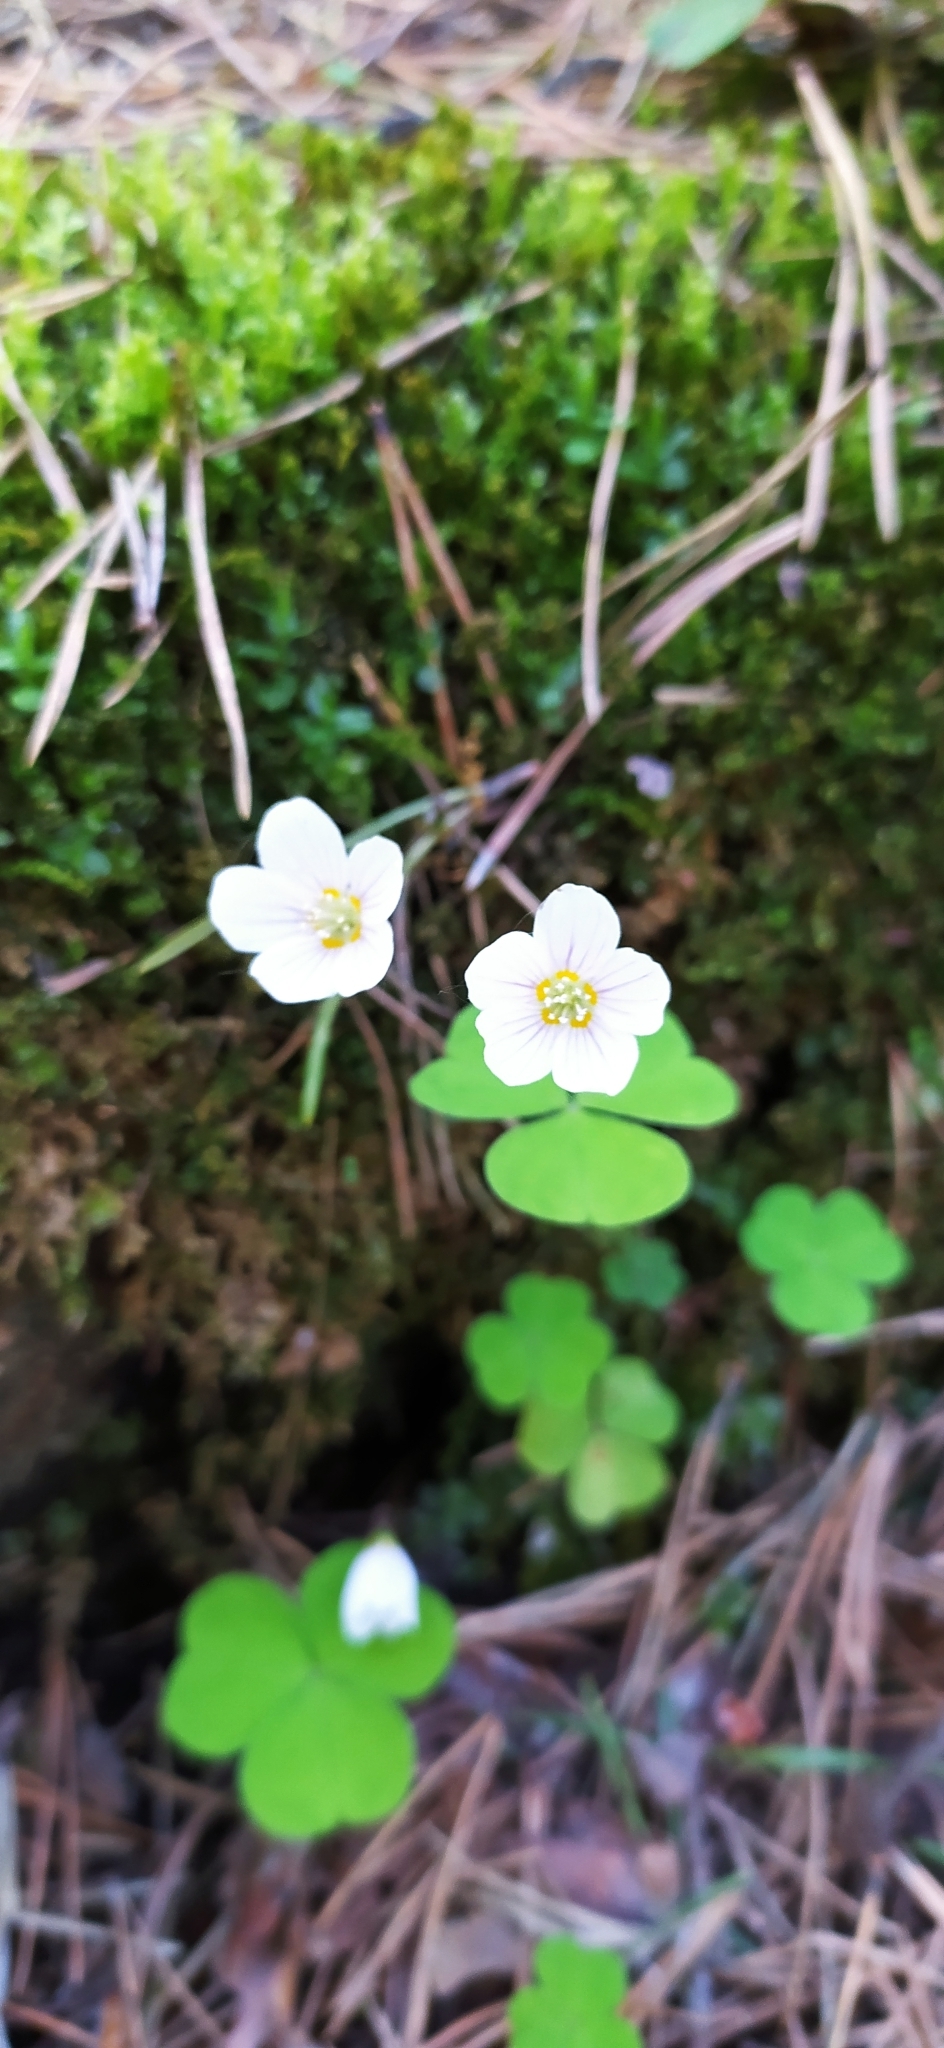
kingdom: Plantae
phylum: Tracheophyta
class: Magnoliopsida
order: Oxalidales
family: Oxalidaceae
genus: Oxalis
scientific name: Oxalis acetosella
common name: Wood-sorrel
